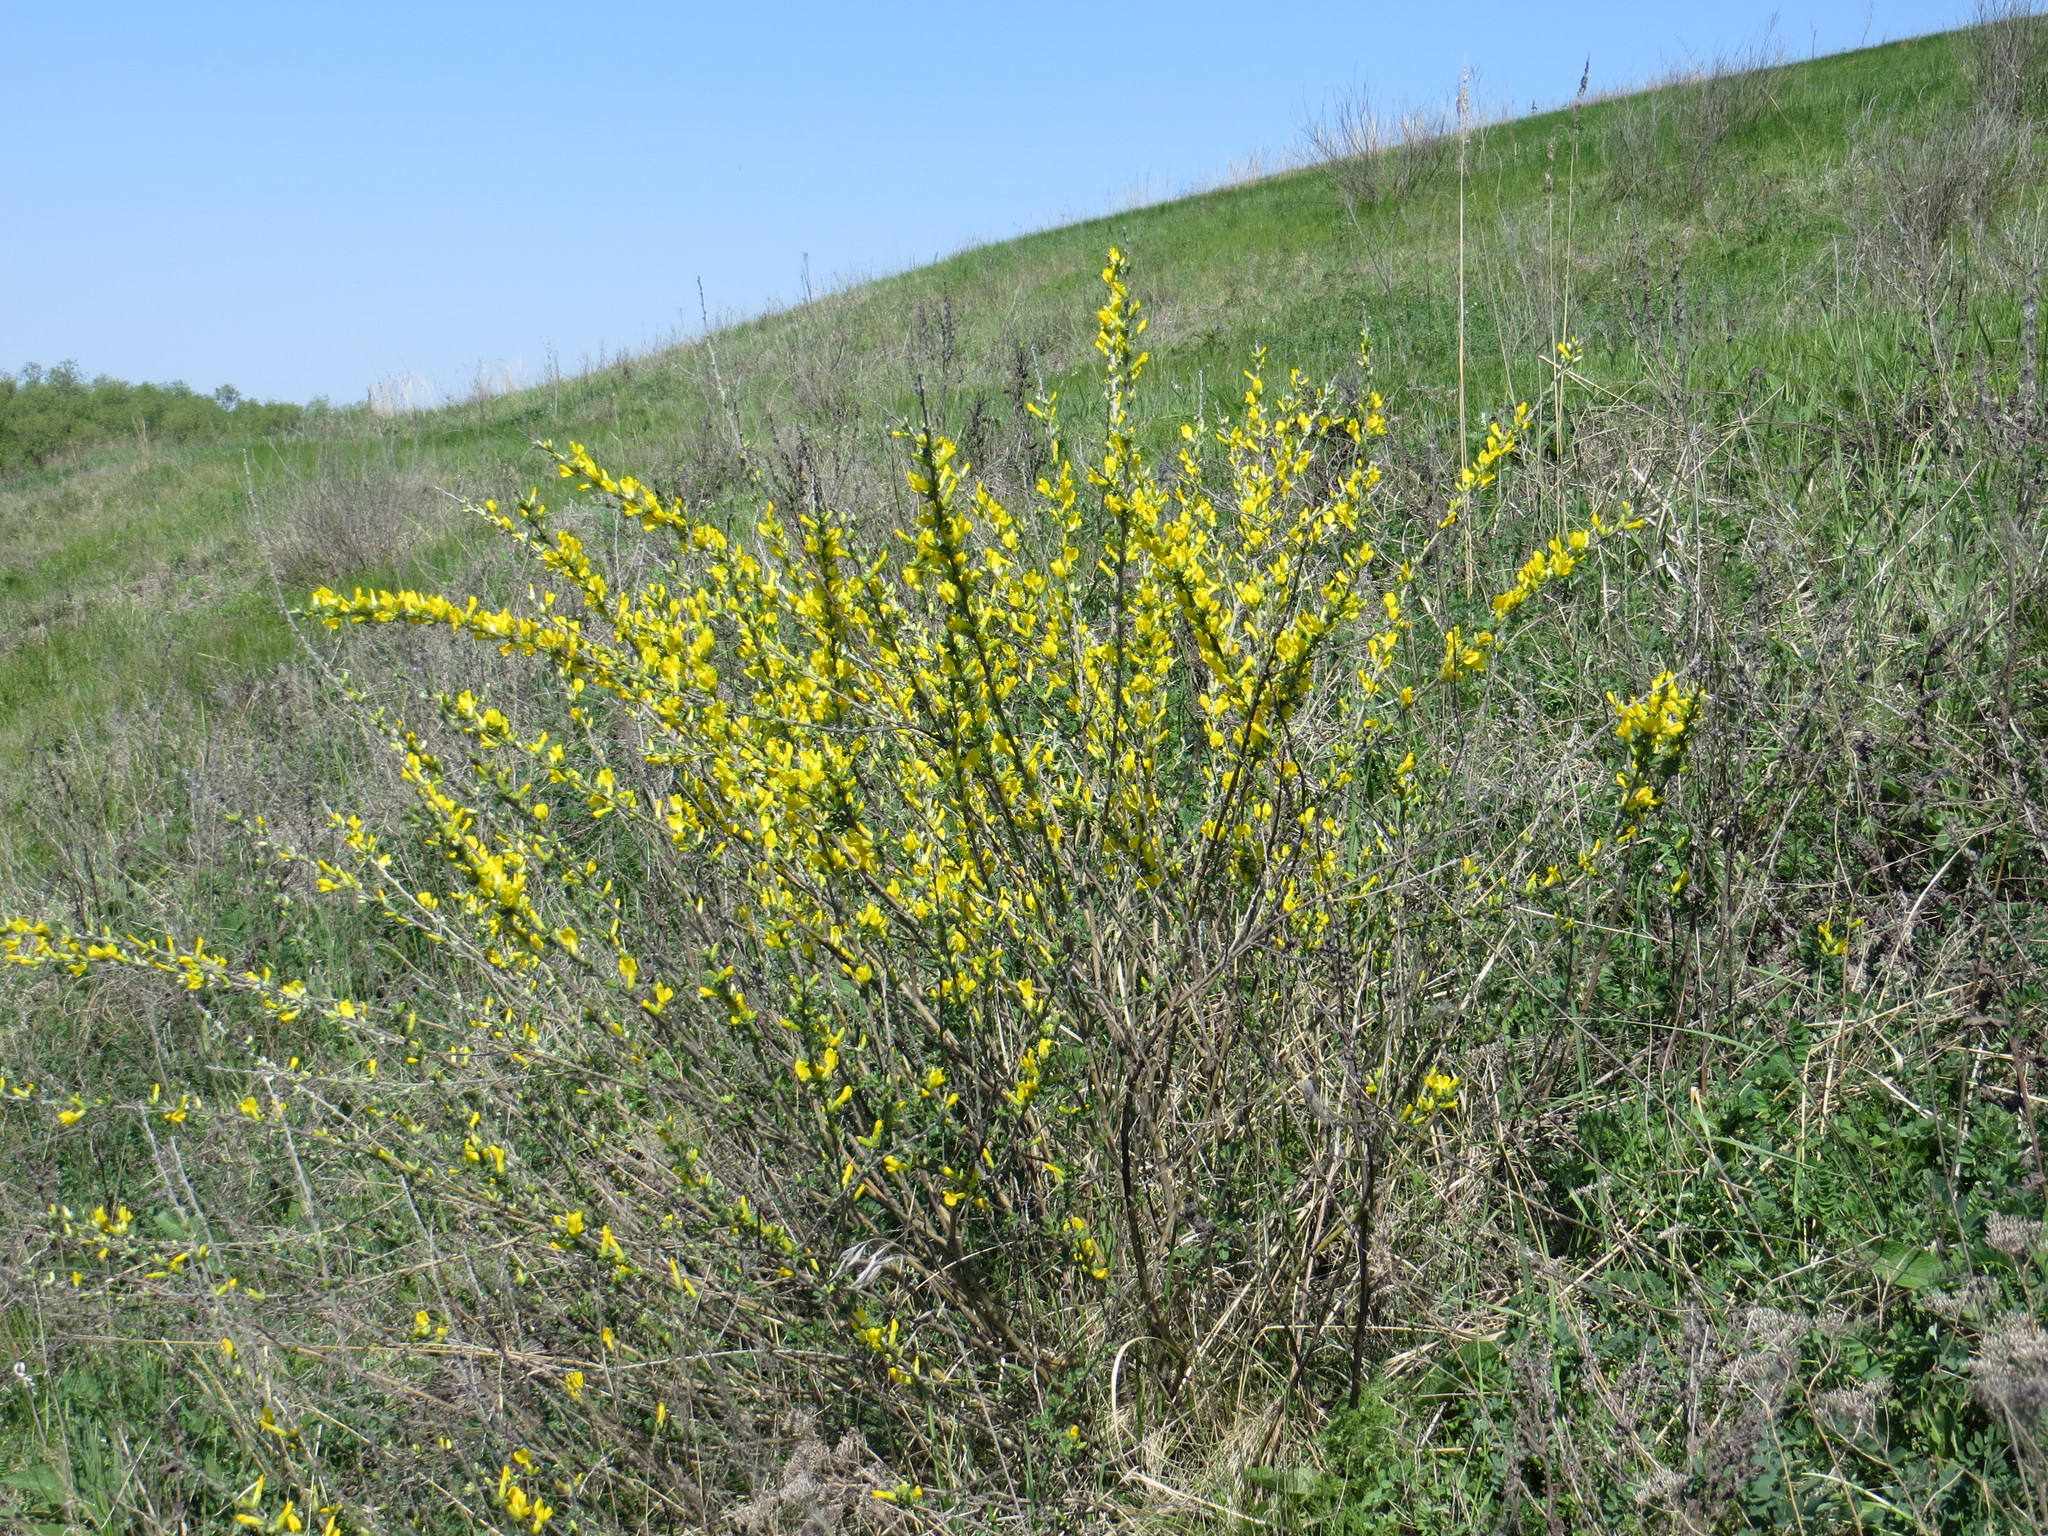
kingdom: Plantae
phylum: Tracheophyta
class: Magnoliopsida
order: Fabales
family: Fabaceae
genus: Chamaecytisus
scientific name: Chamaecytisus ruthenicus
